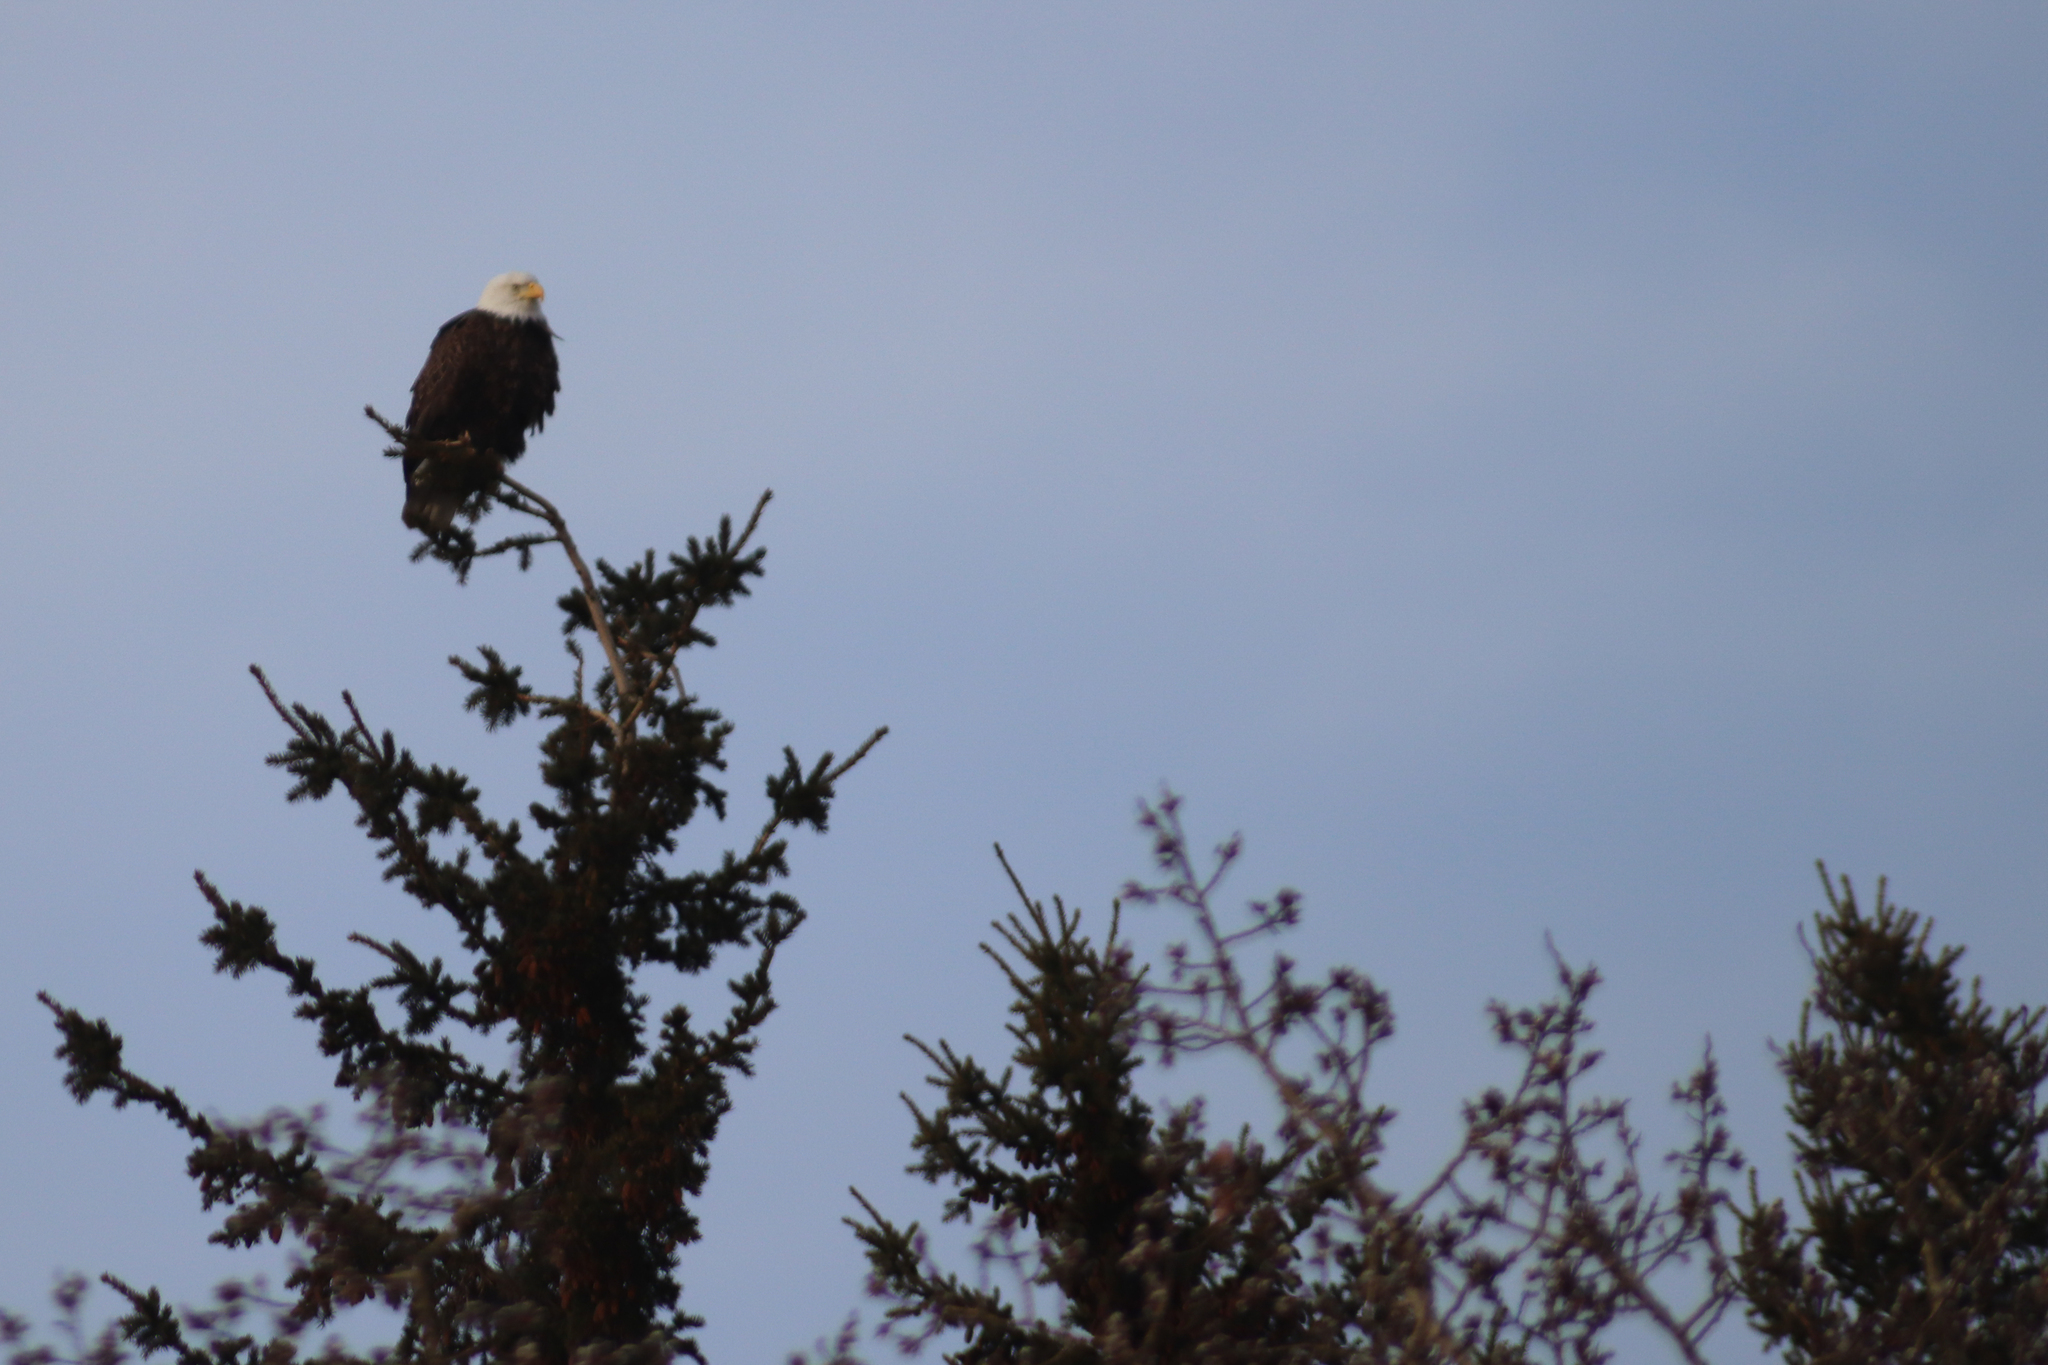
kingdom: Animalia
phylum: Chordata
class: Aves
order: Accipitriformes
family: Accipitridae
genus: Haliaeetus
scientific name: Haliaeetus leucocephalus
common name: Bald eagle
